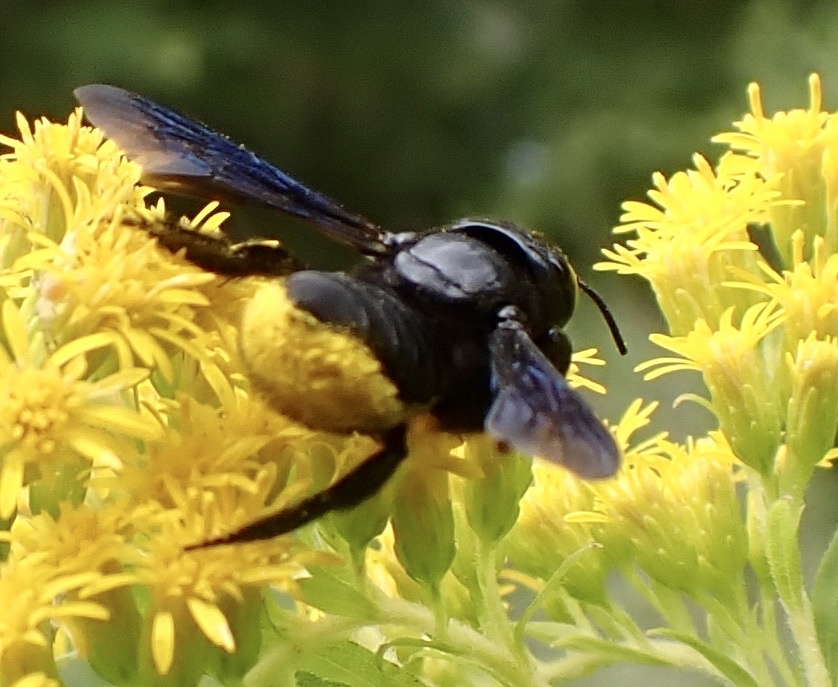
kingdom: Animalia
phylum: Arthropoda
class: Insecta
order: Hymenoptera
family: Megachilidae
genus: Megachile
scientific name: Megachile xylocopoides
